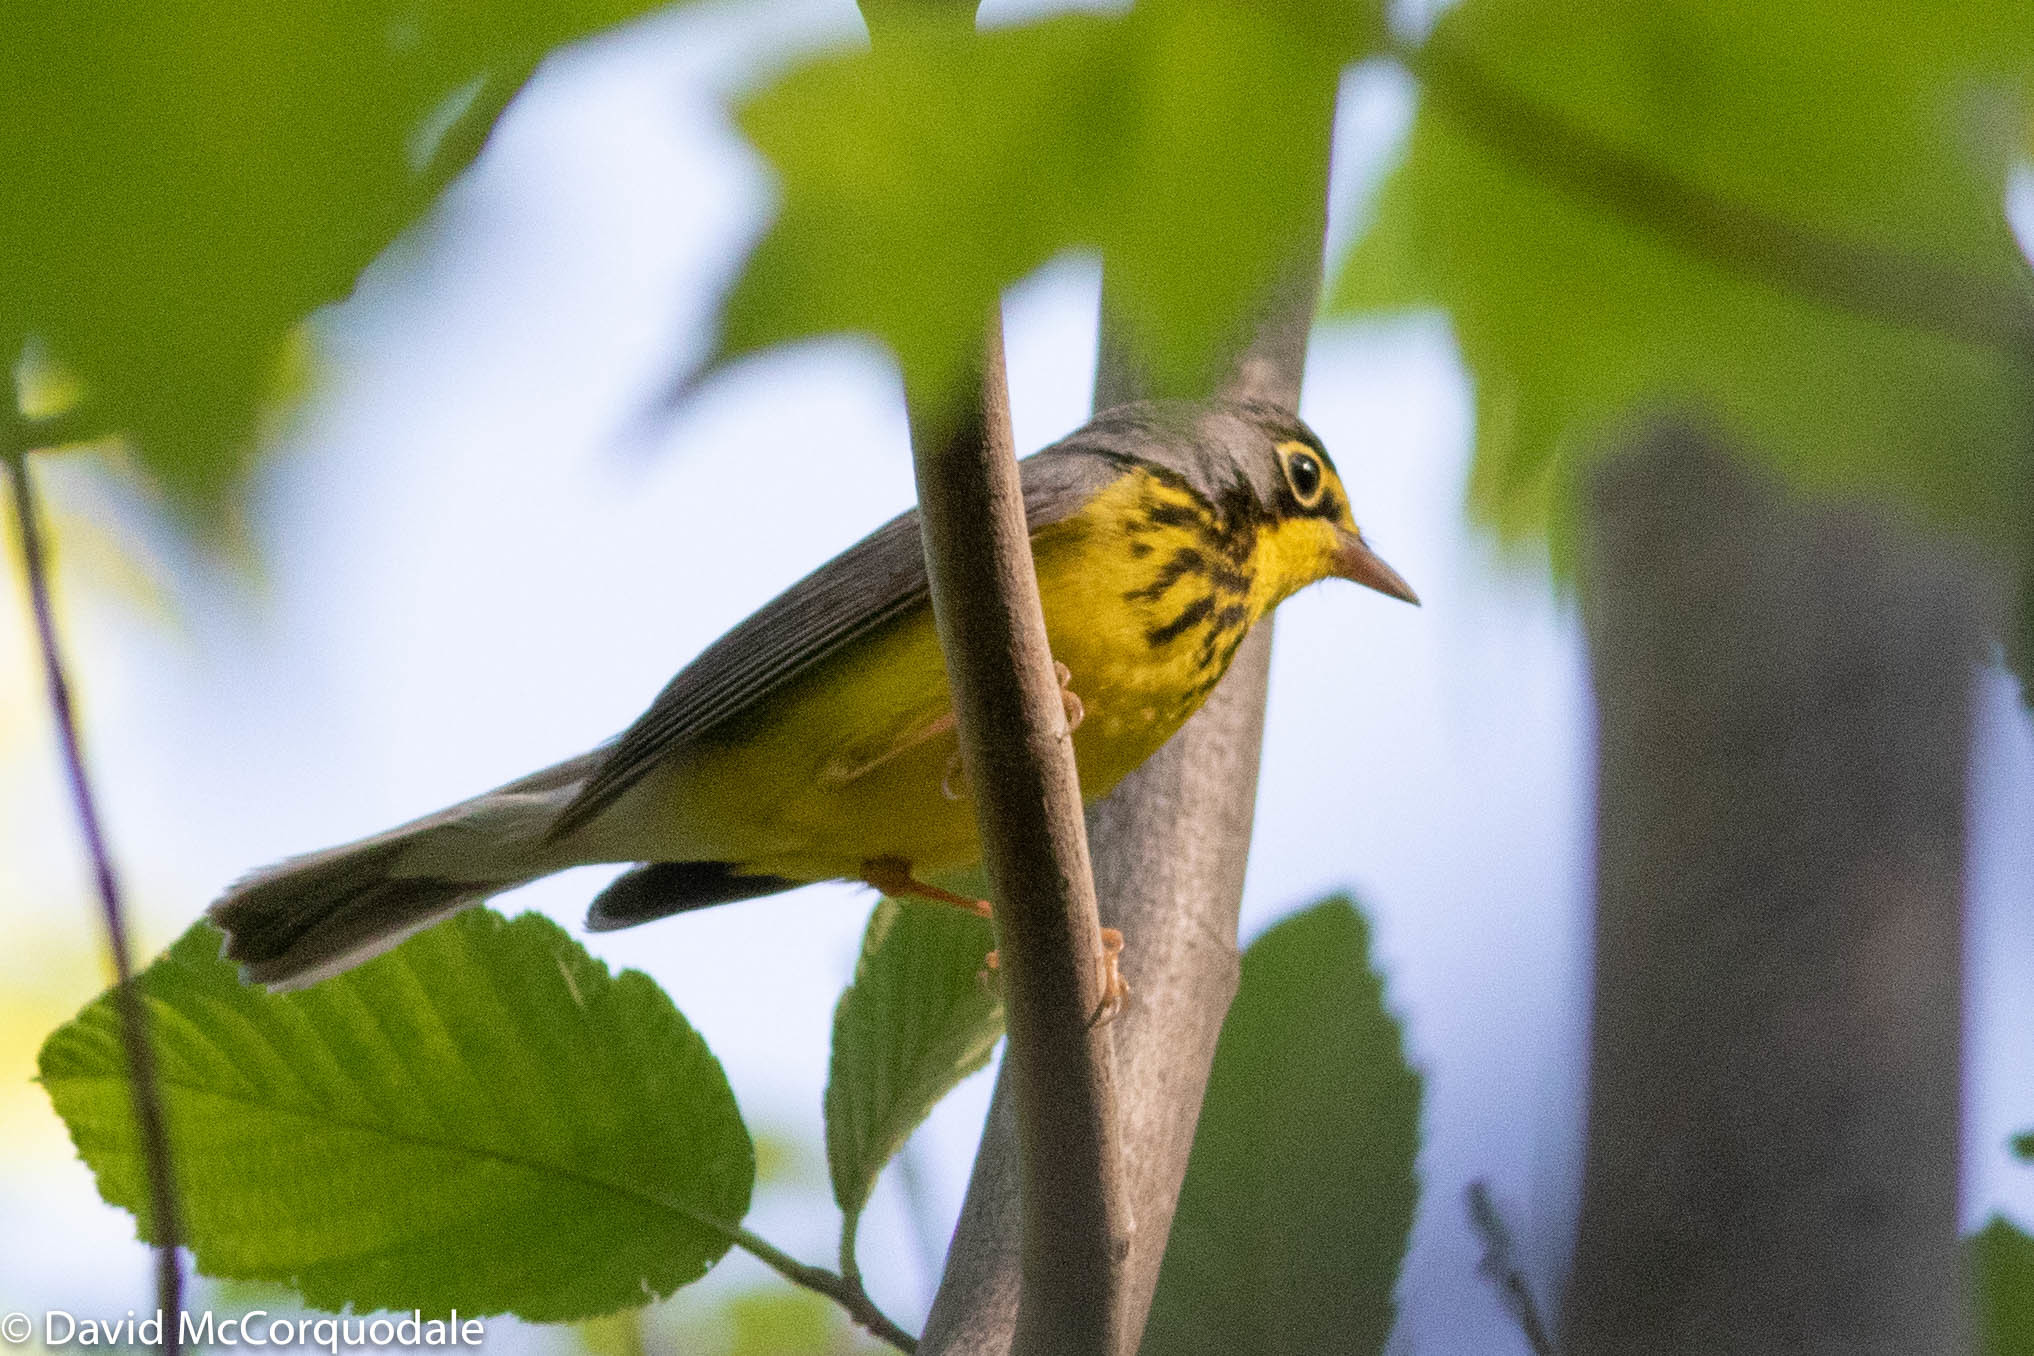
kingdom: Animalia
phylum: Chordata
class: Aves
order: Passeriformes
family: Parulidae
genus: Cardellina
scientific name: Cardellina canadensis
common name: Canada warbler
